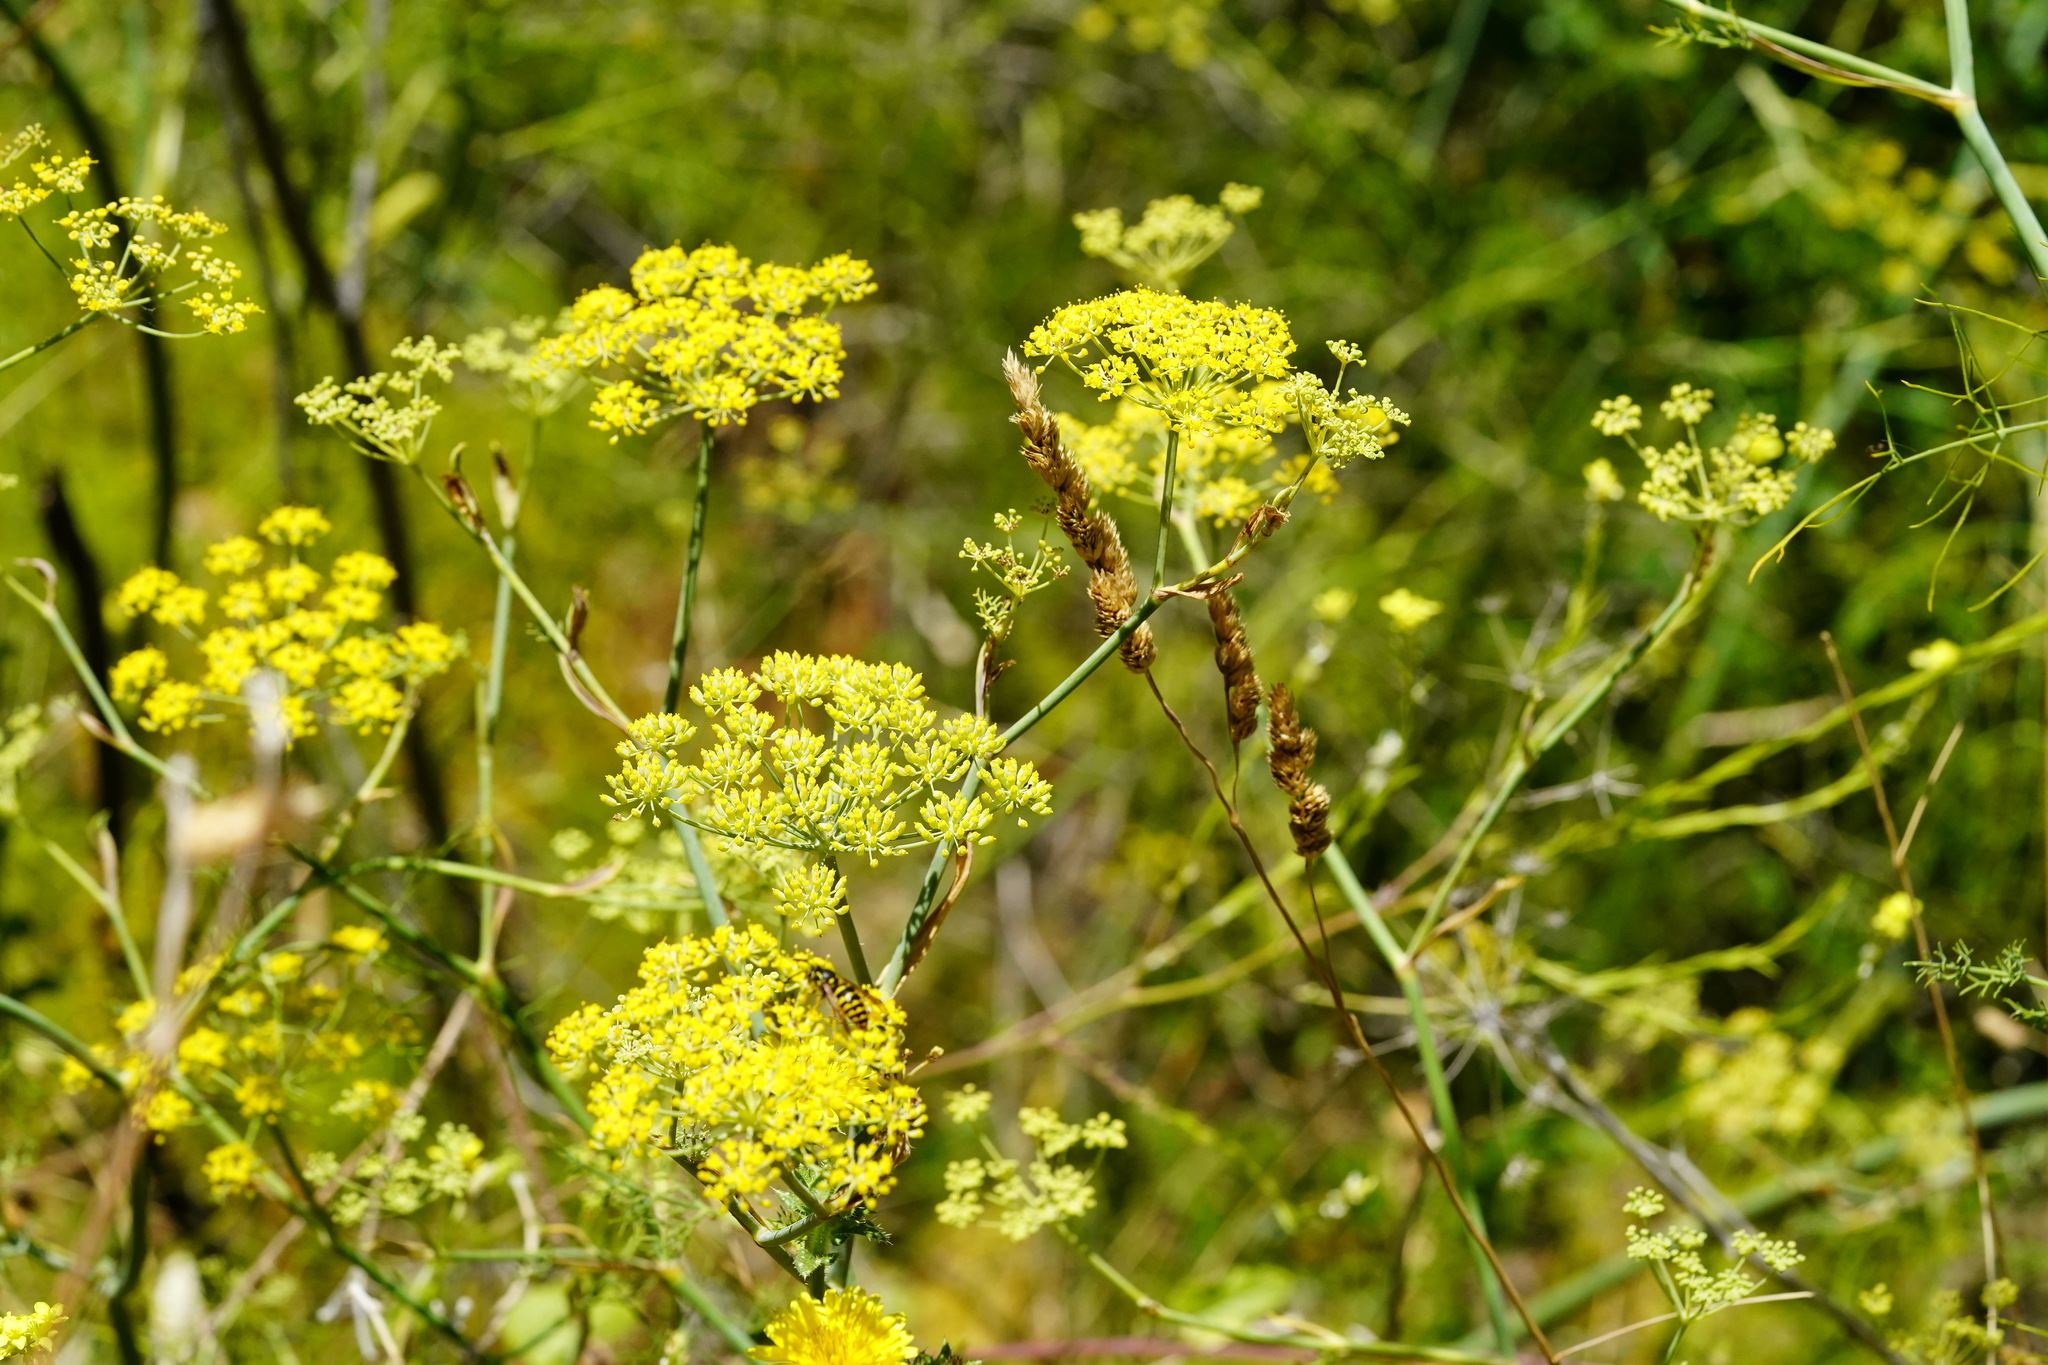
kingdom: Plantae
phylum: Tracheophyta
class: Magnoliopsida
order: Apiales
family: Apiaceae
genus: Foeniculum
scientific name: Foeniculum vulgare
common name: Fennel
